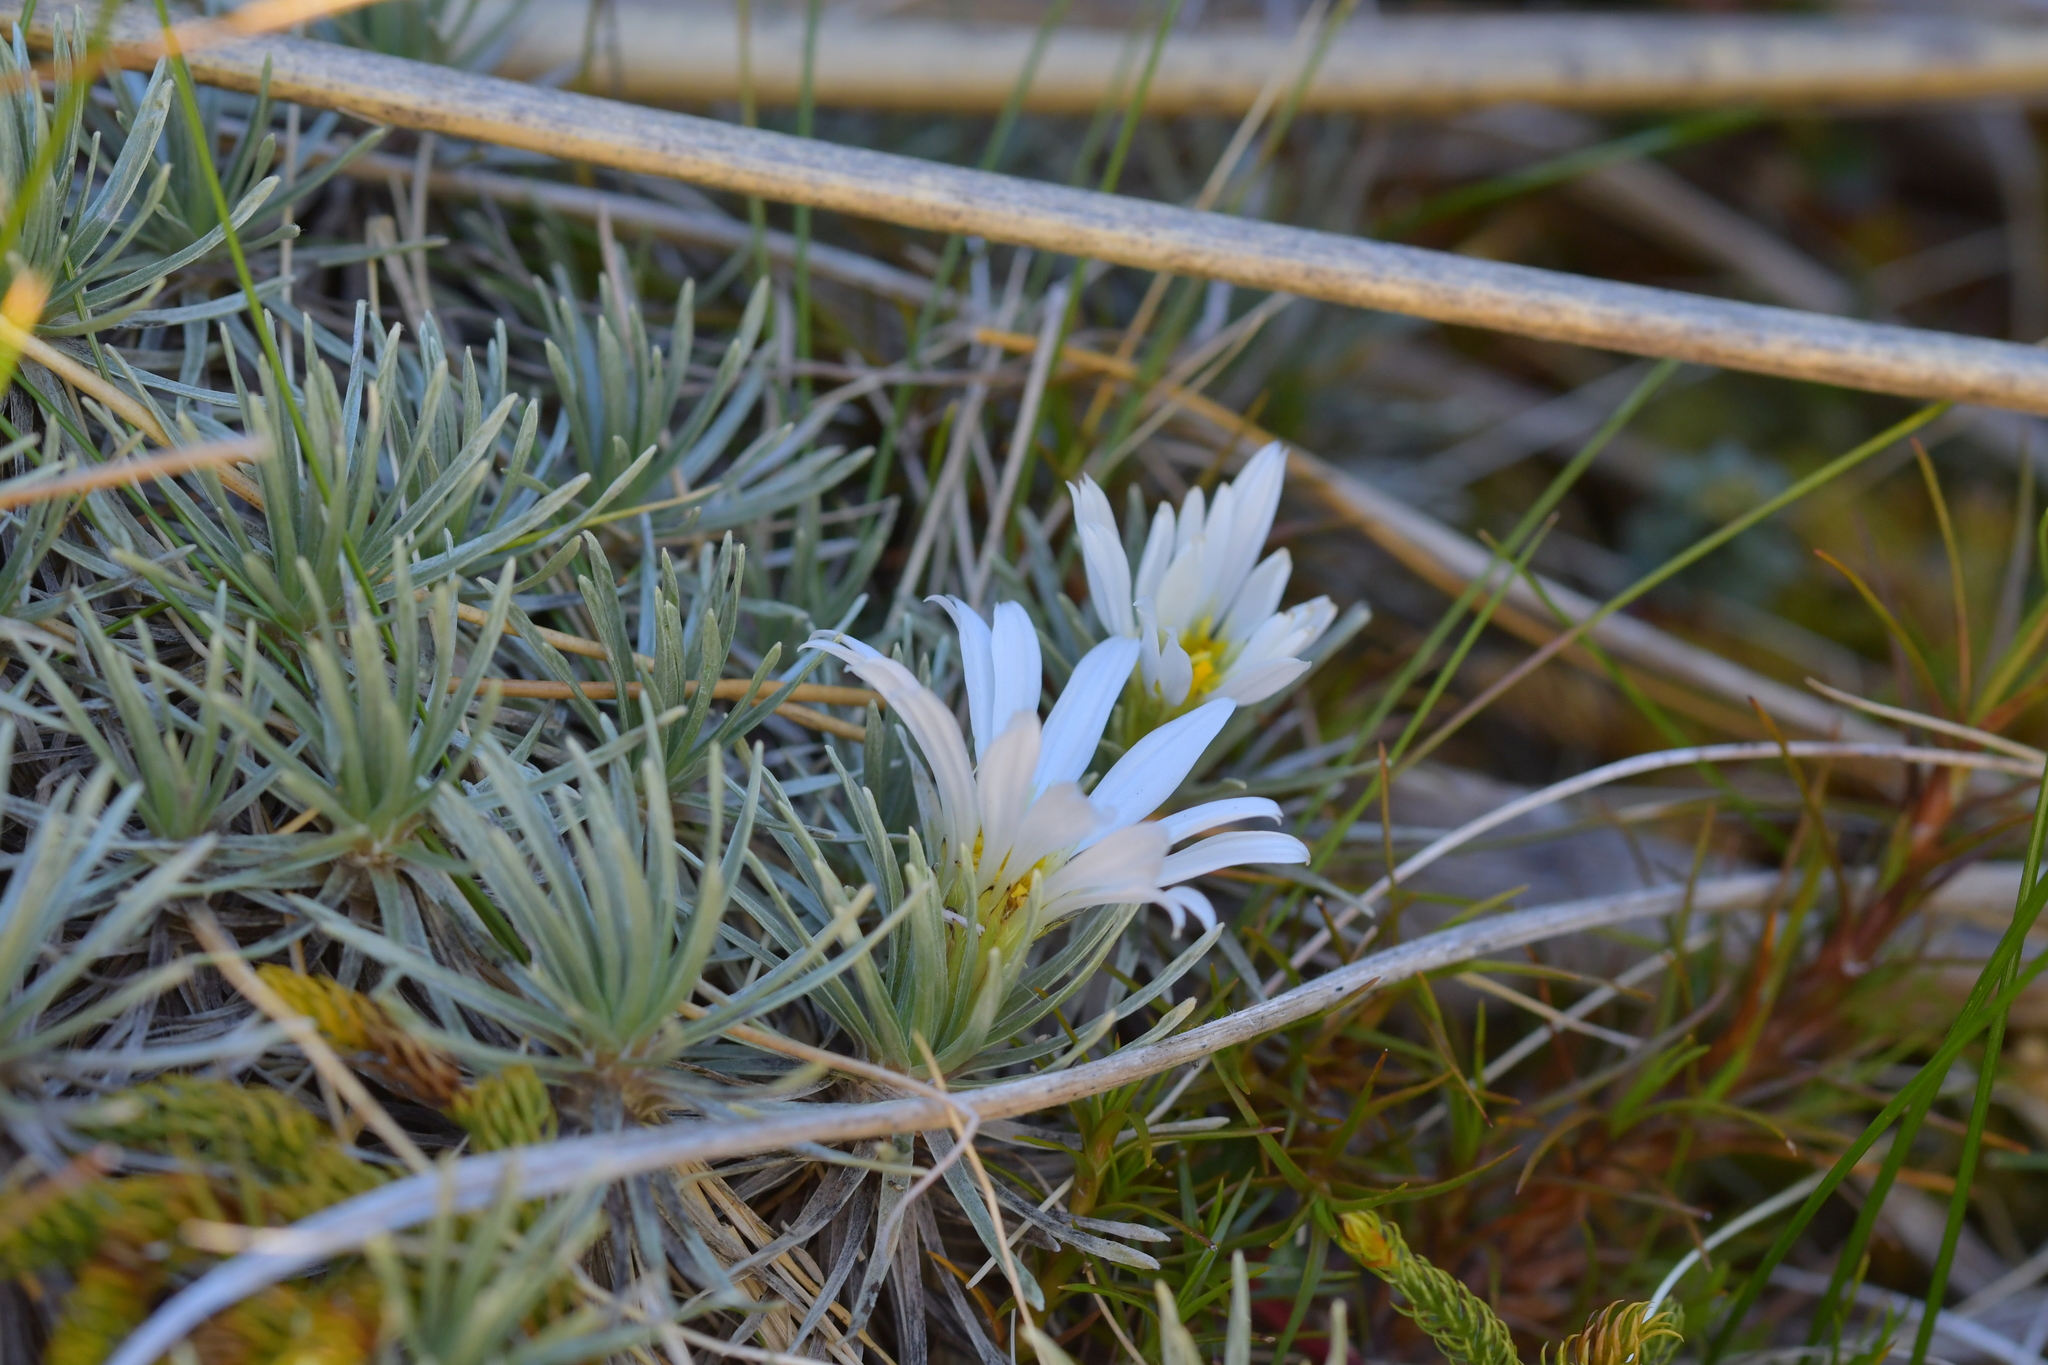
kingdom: Plantae
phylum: Tracheophyta
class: Magnoliopsida
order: Asterales
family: Asteraceae
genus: Celmisia
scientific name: Celmisia sessiliflora
